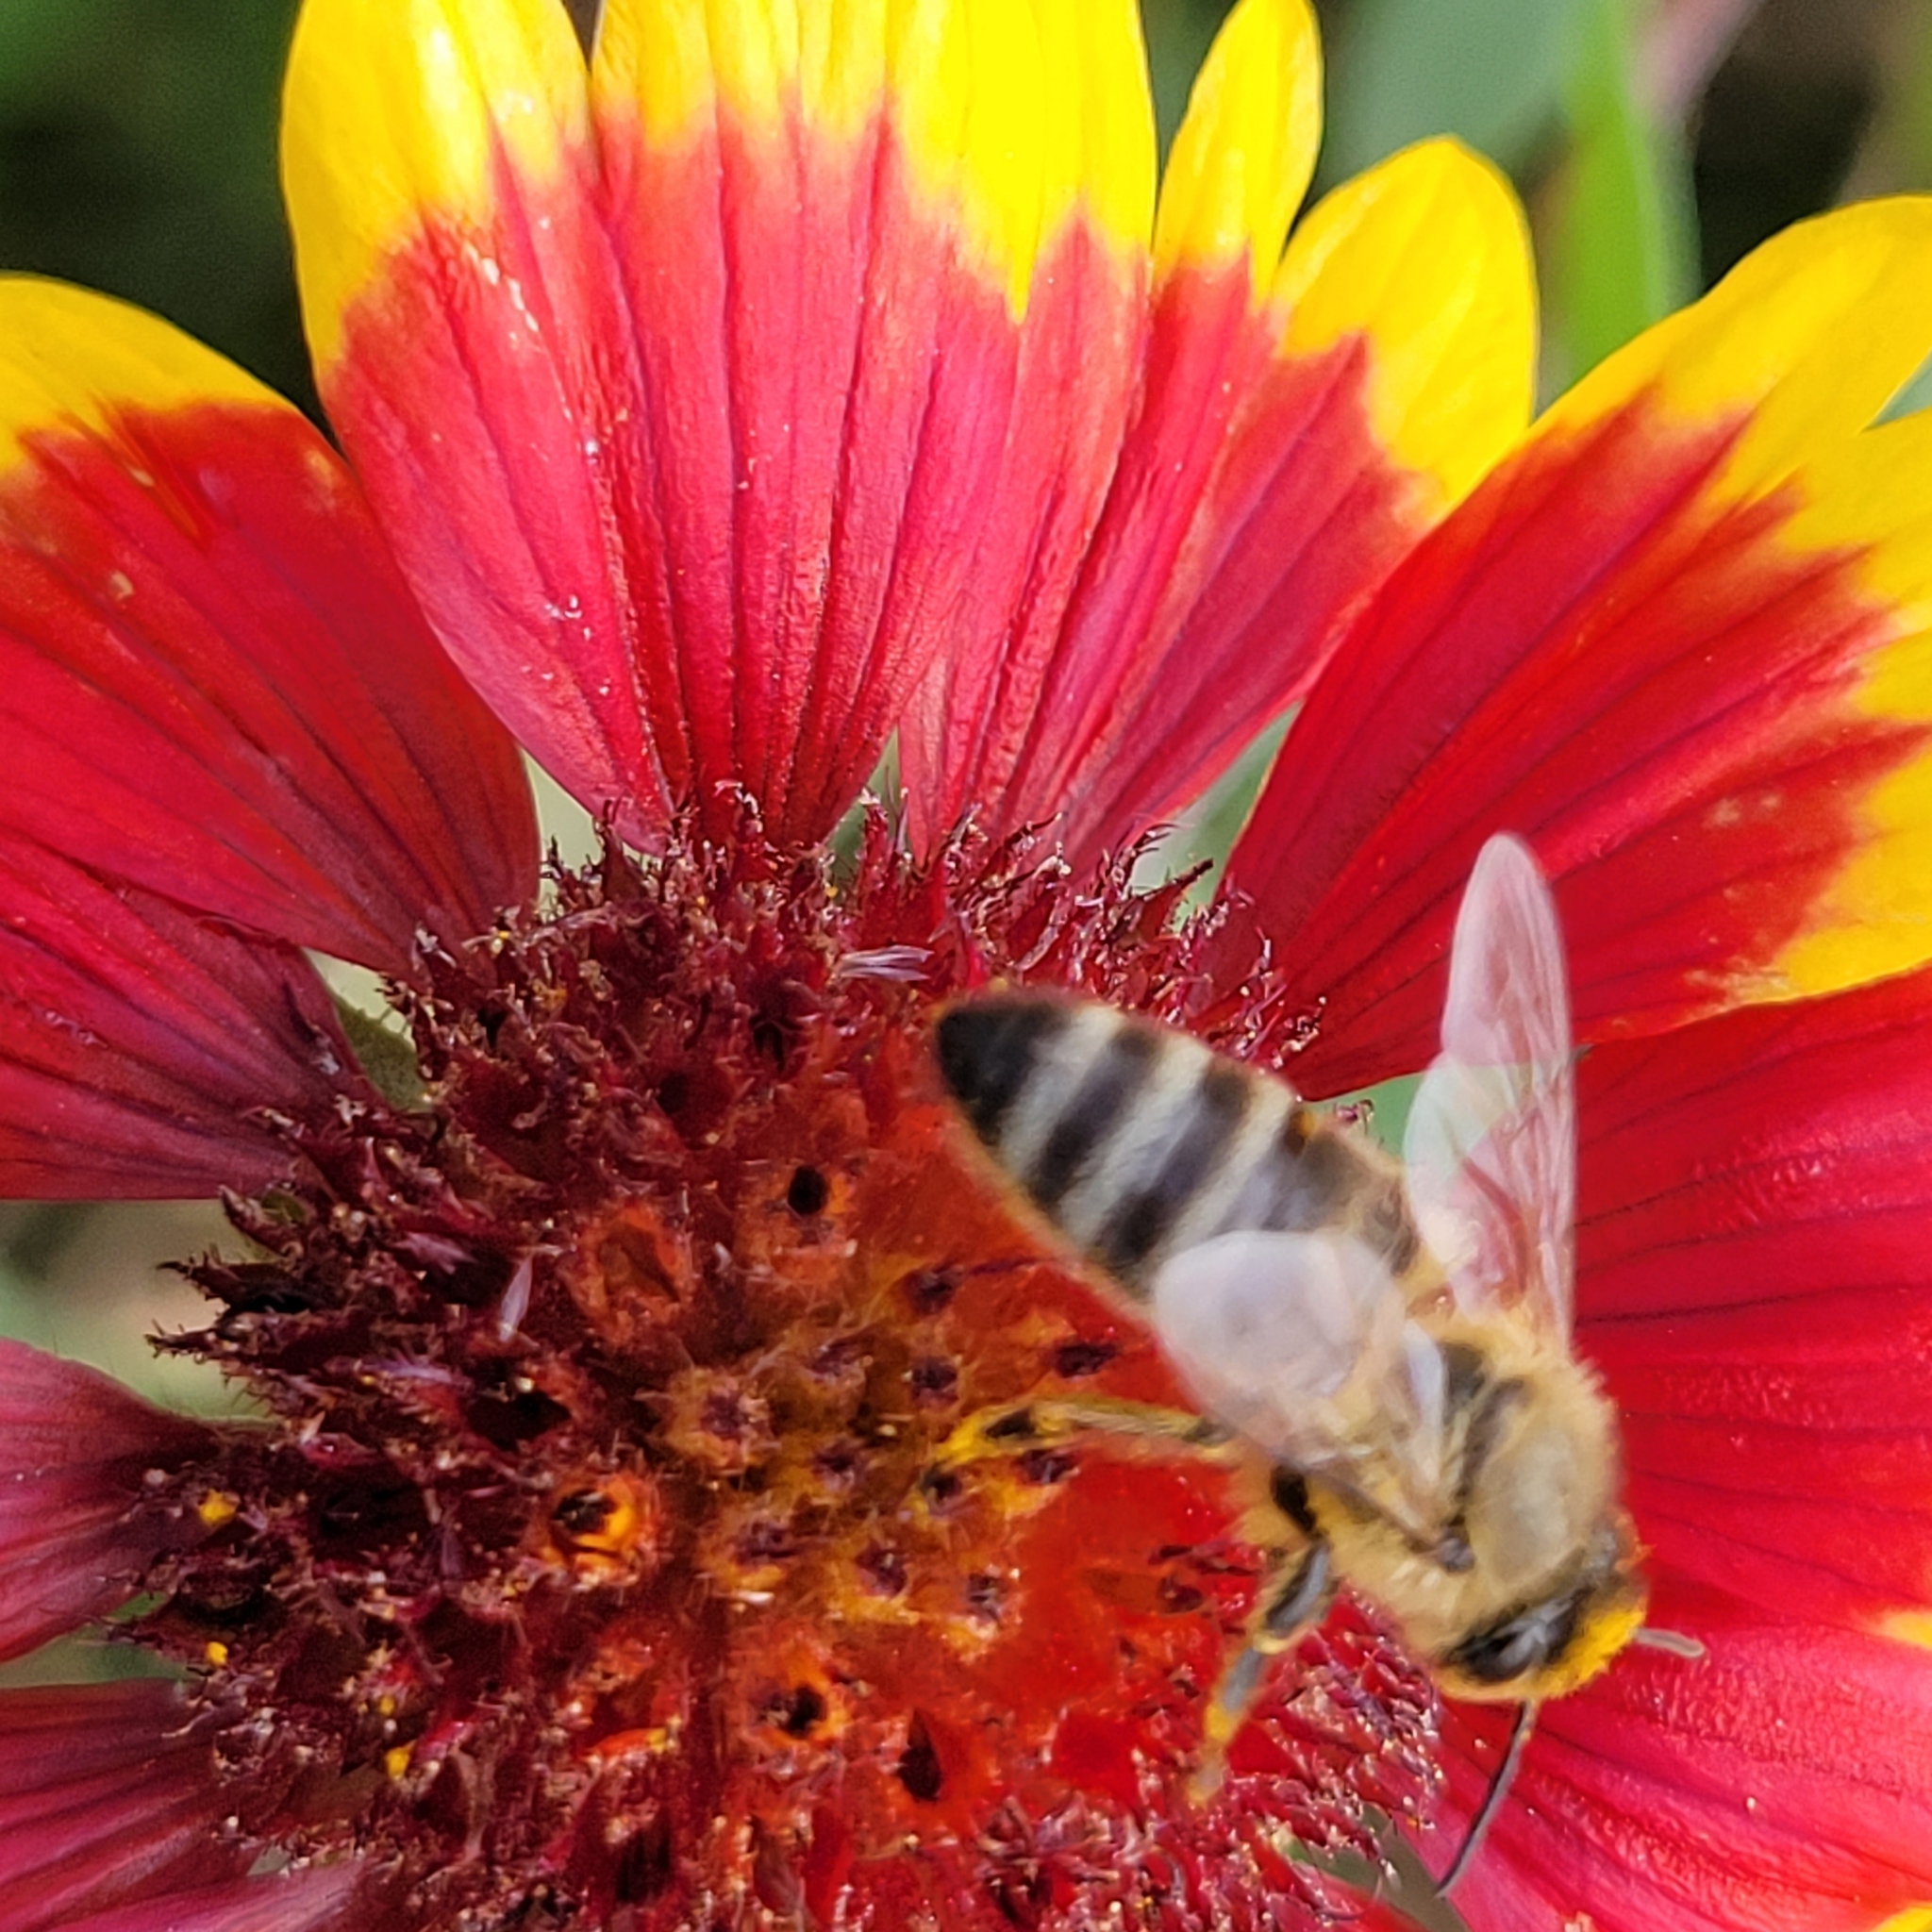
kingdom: Animalia
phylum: Arthropoda
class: Insecta
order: Hymenoptera
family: Apidae
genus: Apis
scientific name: Apis mellifera
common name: Honey bee
